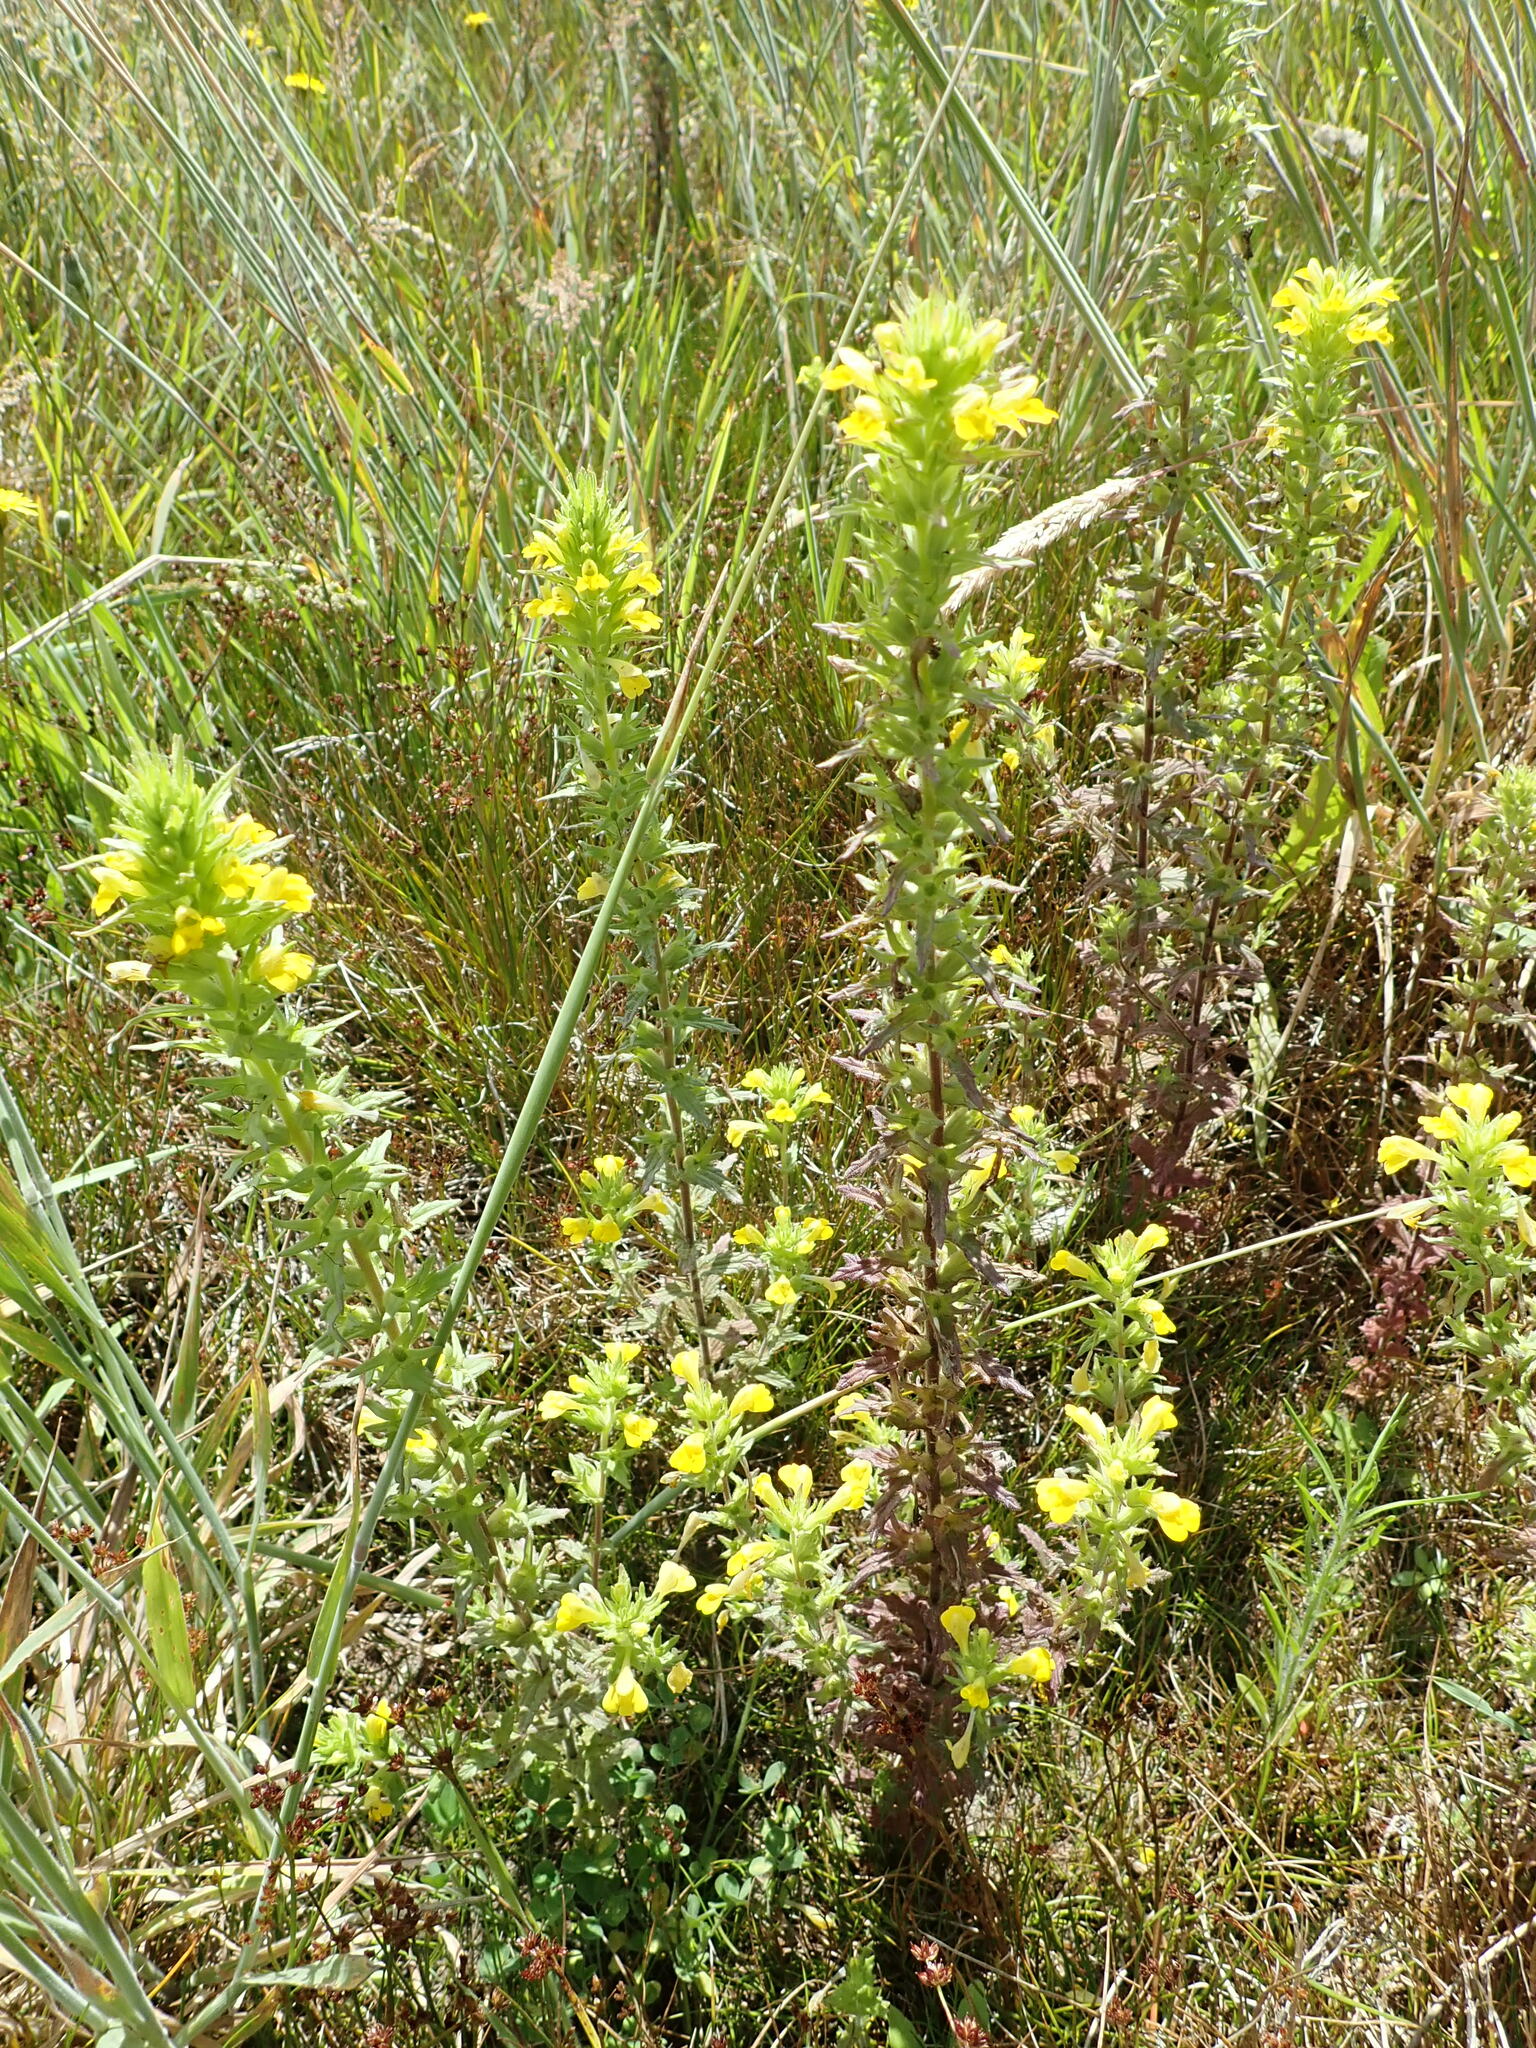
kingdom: Plantae
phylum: Tracheophyta
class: Magnoliopsida
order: Lamiales
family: Orobanchaceae
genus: Bellardia
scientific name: Bellardia viscosa
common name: Sticky parentucellia
